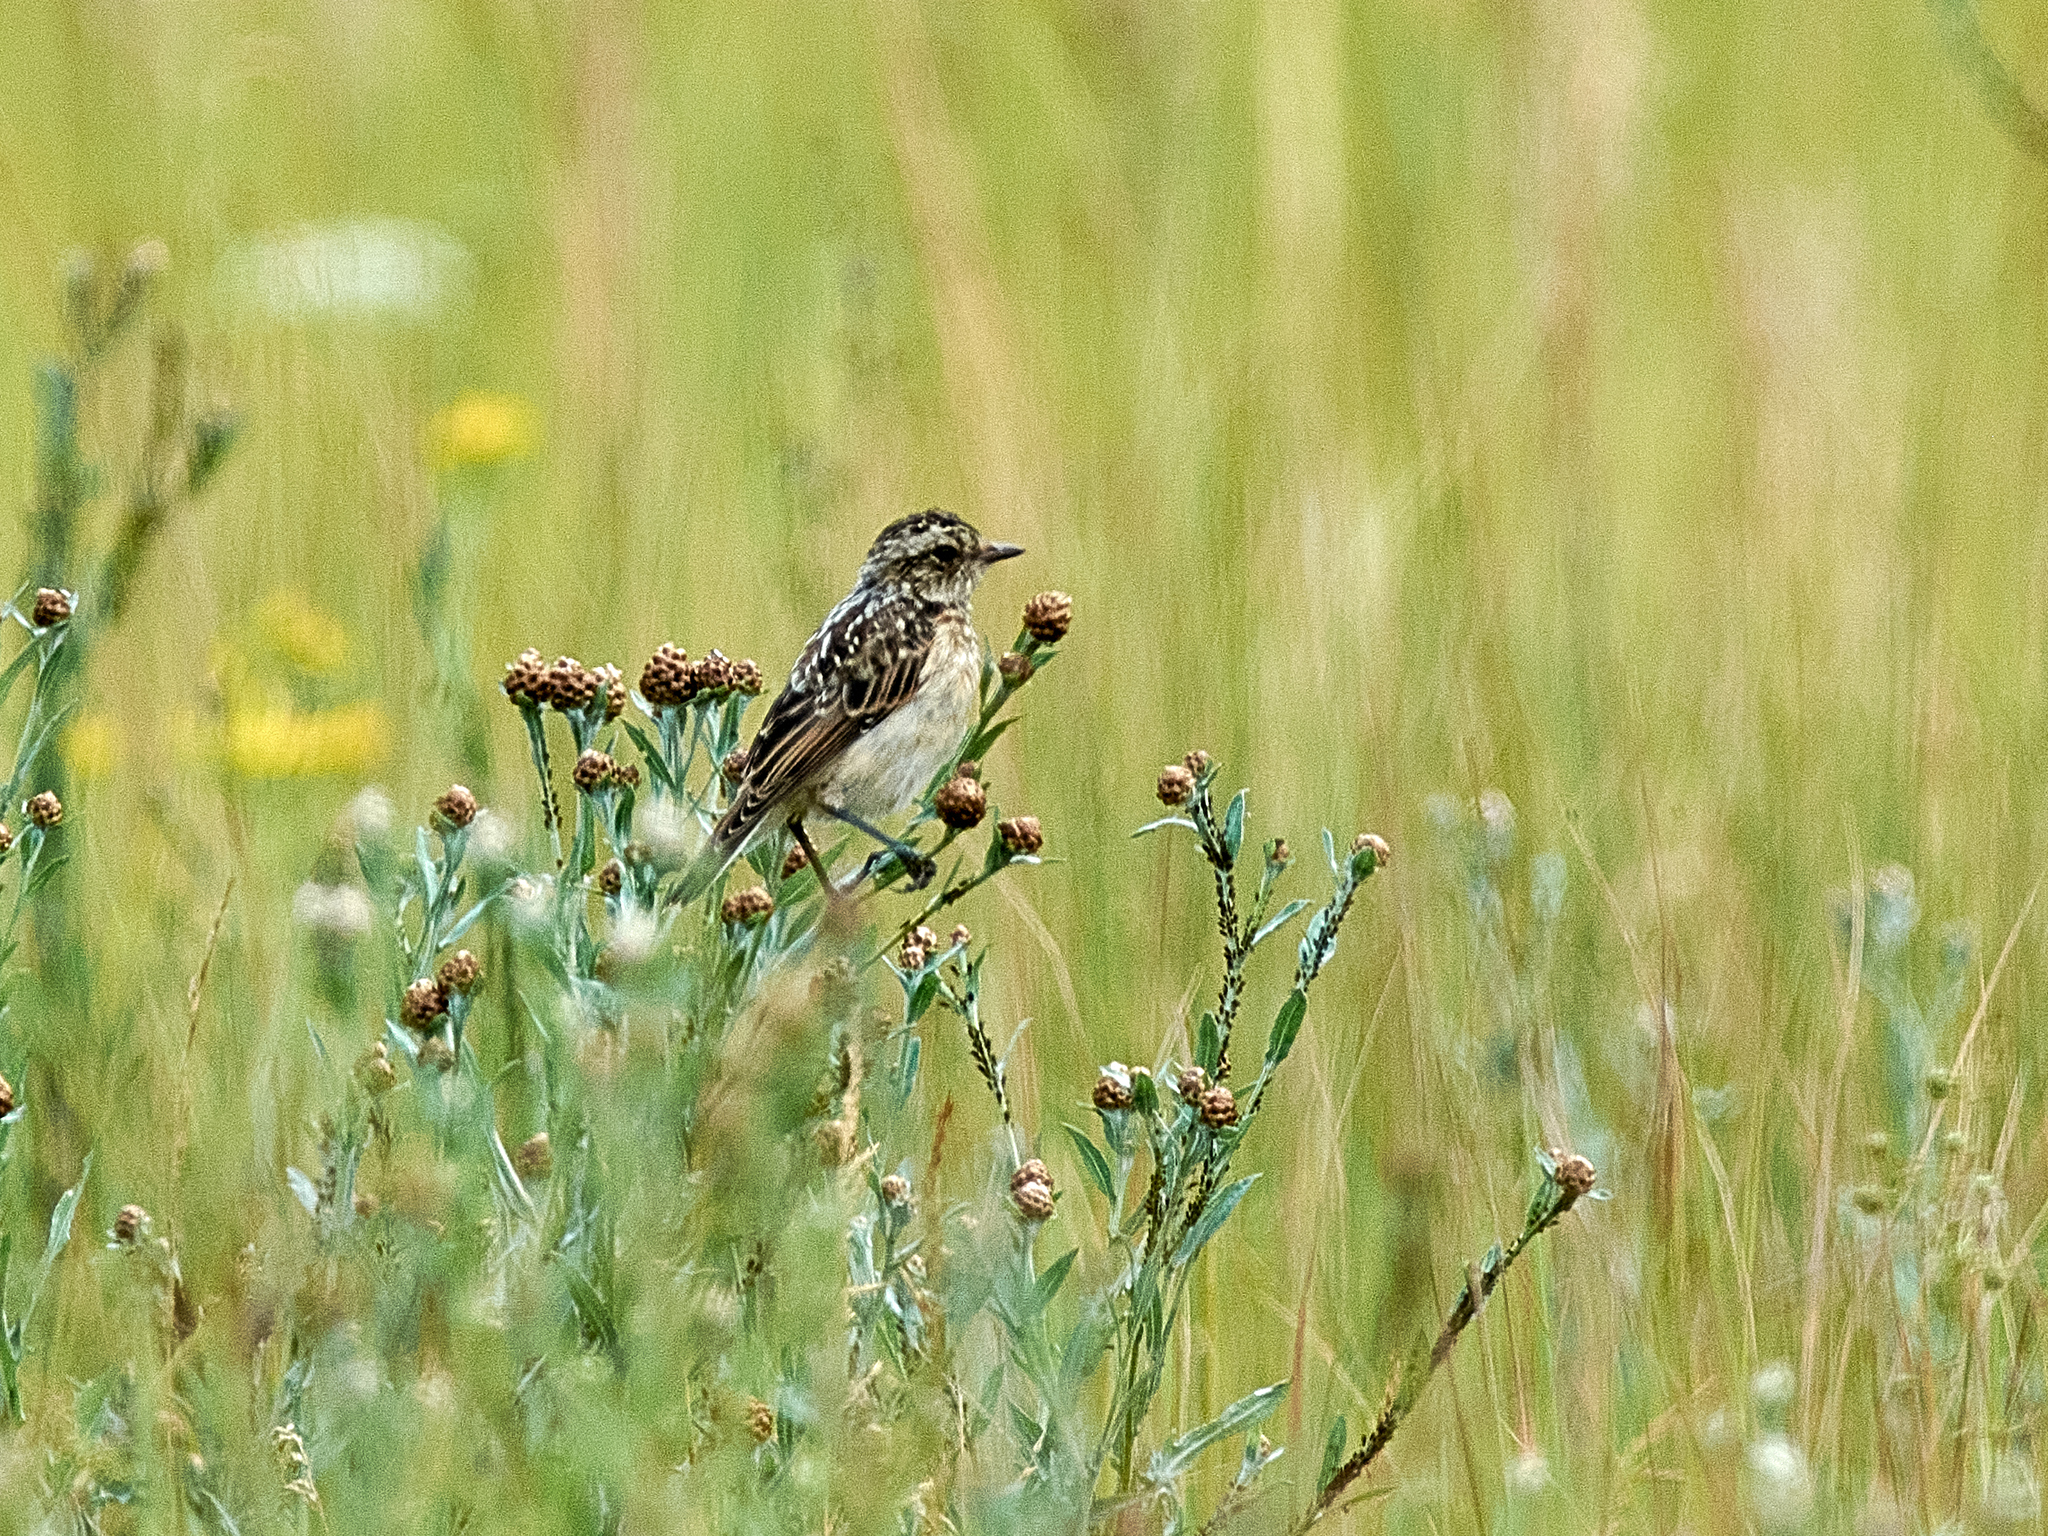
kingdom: Animalia
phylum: Chordata
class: Aves
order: Passeriformes
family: Muscicapidae
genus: Saxicola
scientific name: Saxicola rubetra
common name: Whinchat
